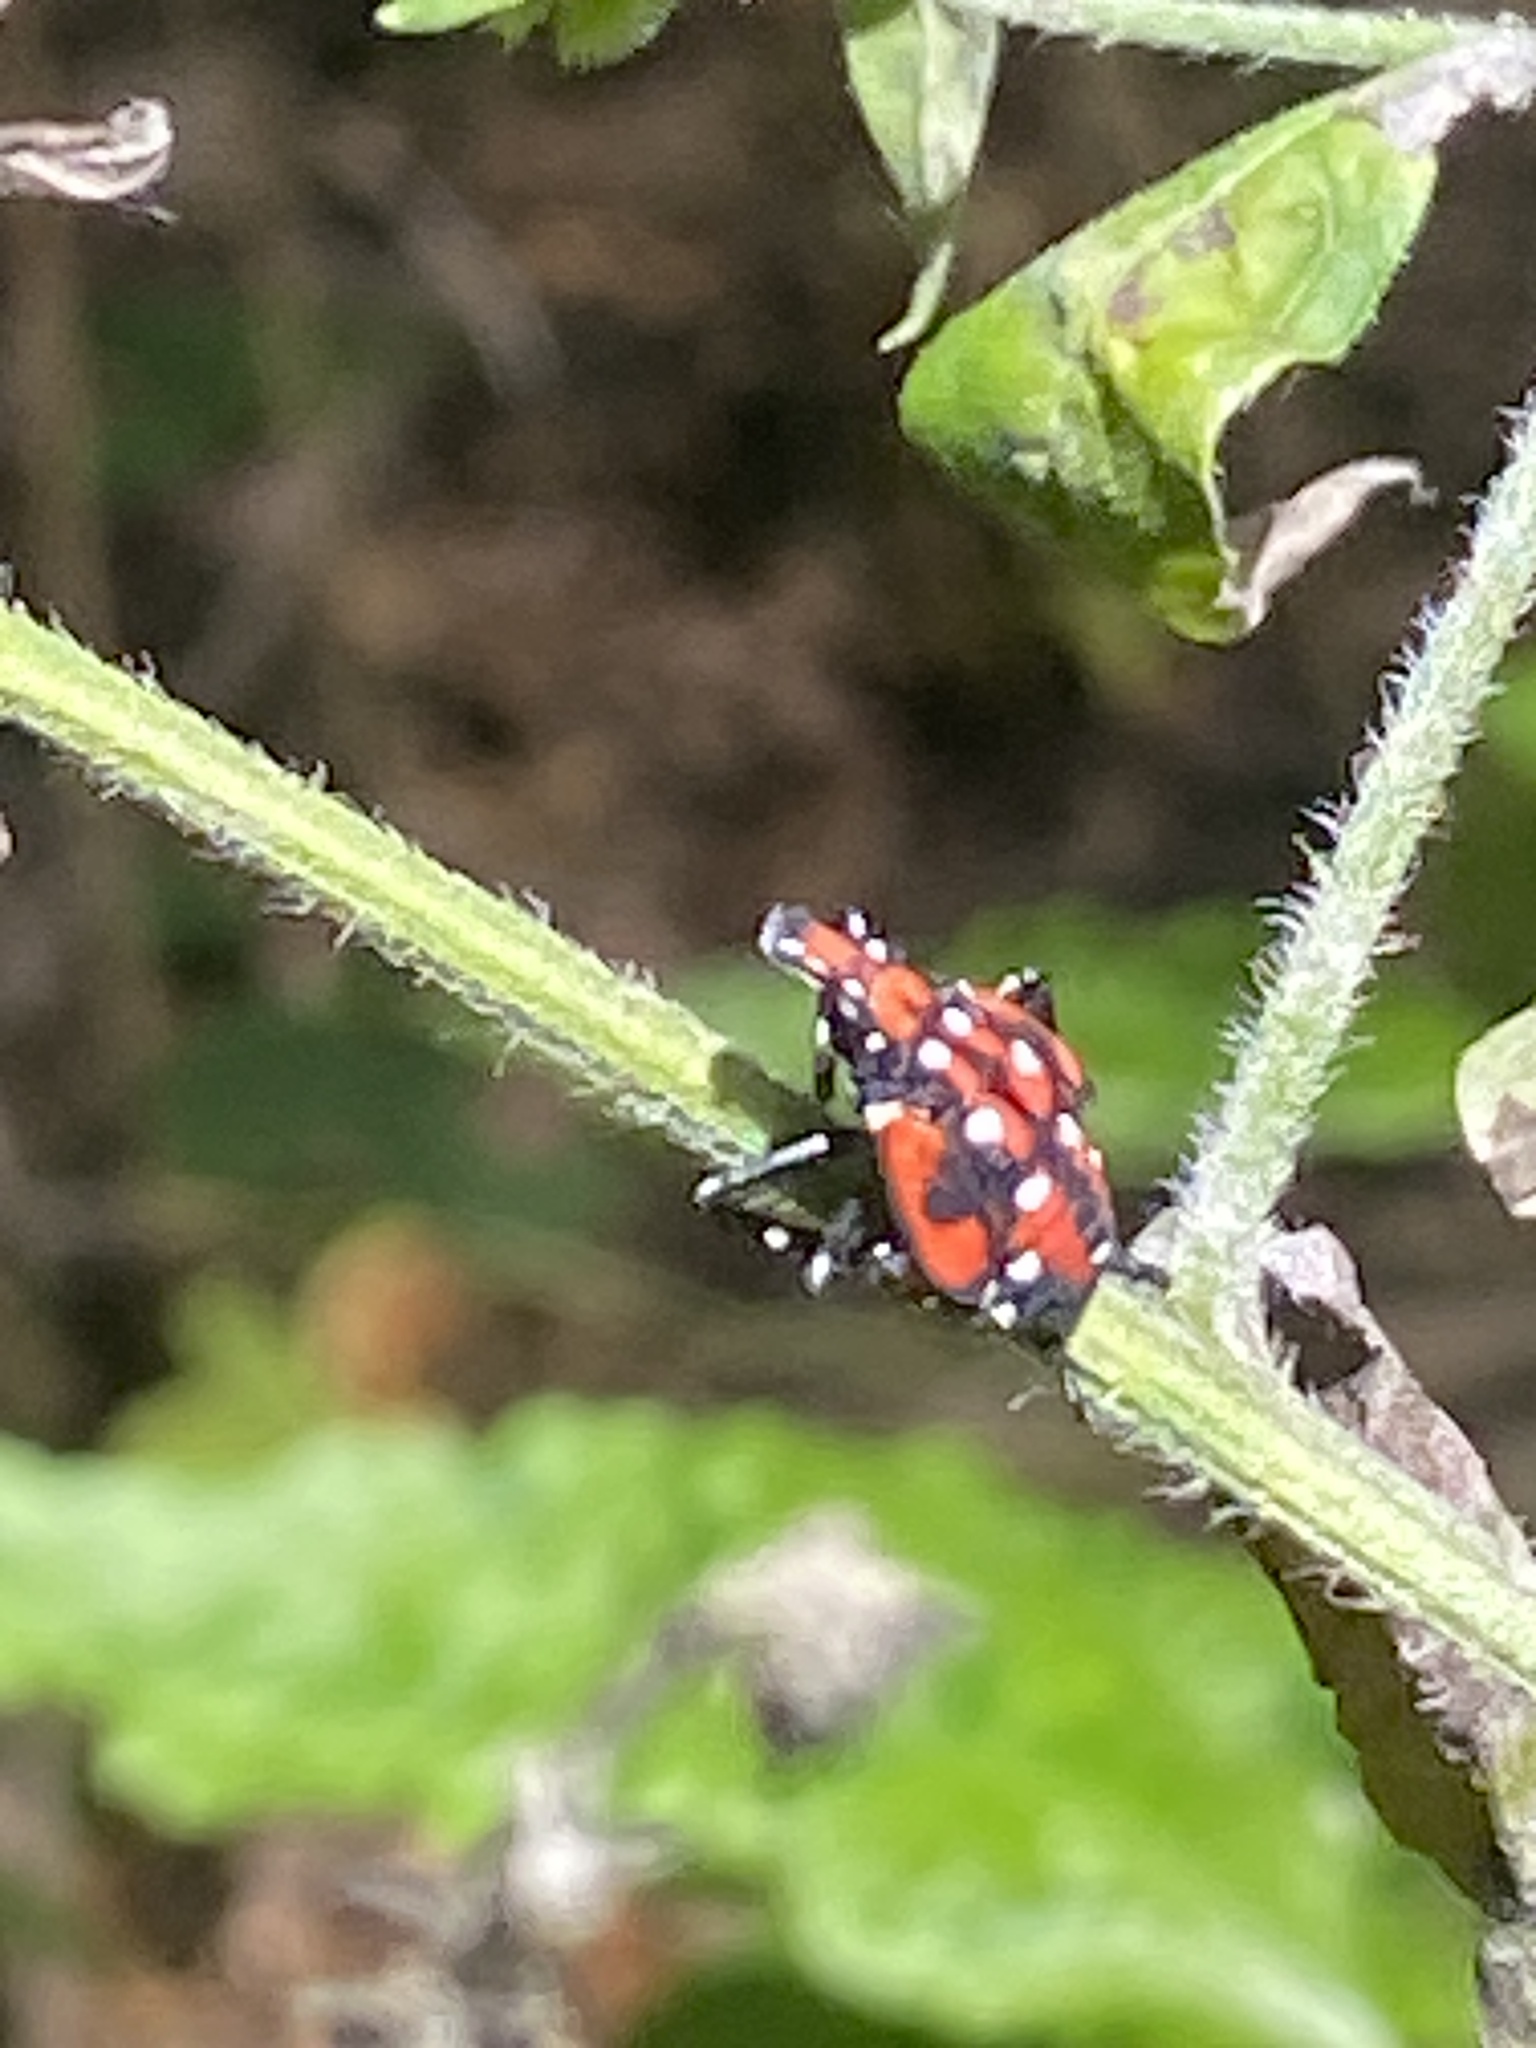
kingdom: Animalia
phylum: Arthropoda
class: Insecta
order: Hemiptera
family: Fulgoridae
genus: Lycorma
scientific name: Lycorma delicatula
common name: Spotted lanternfly
